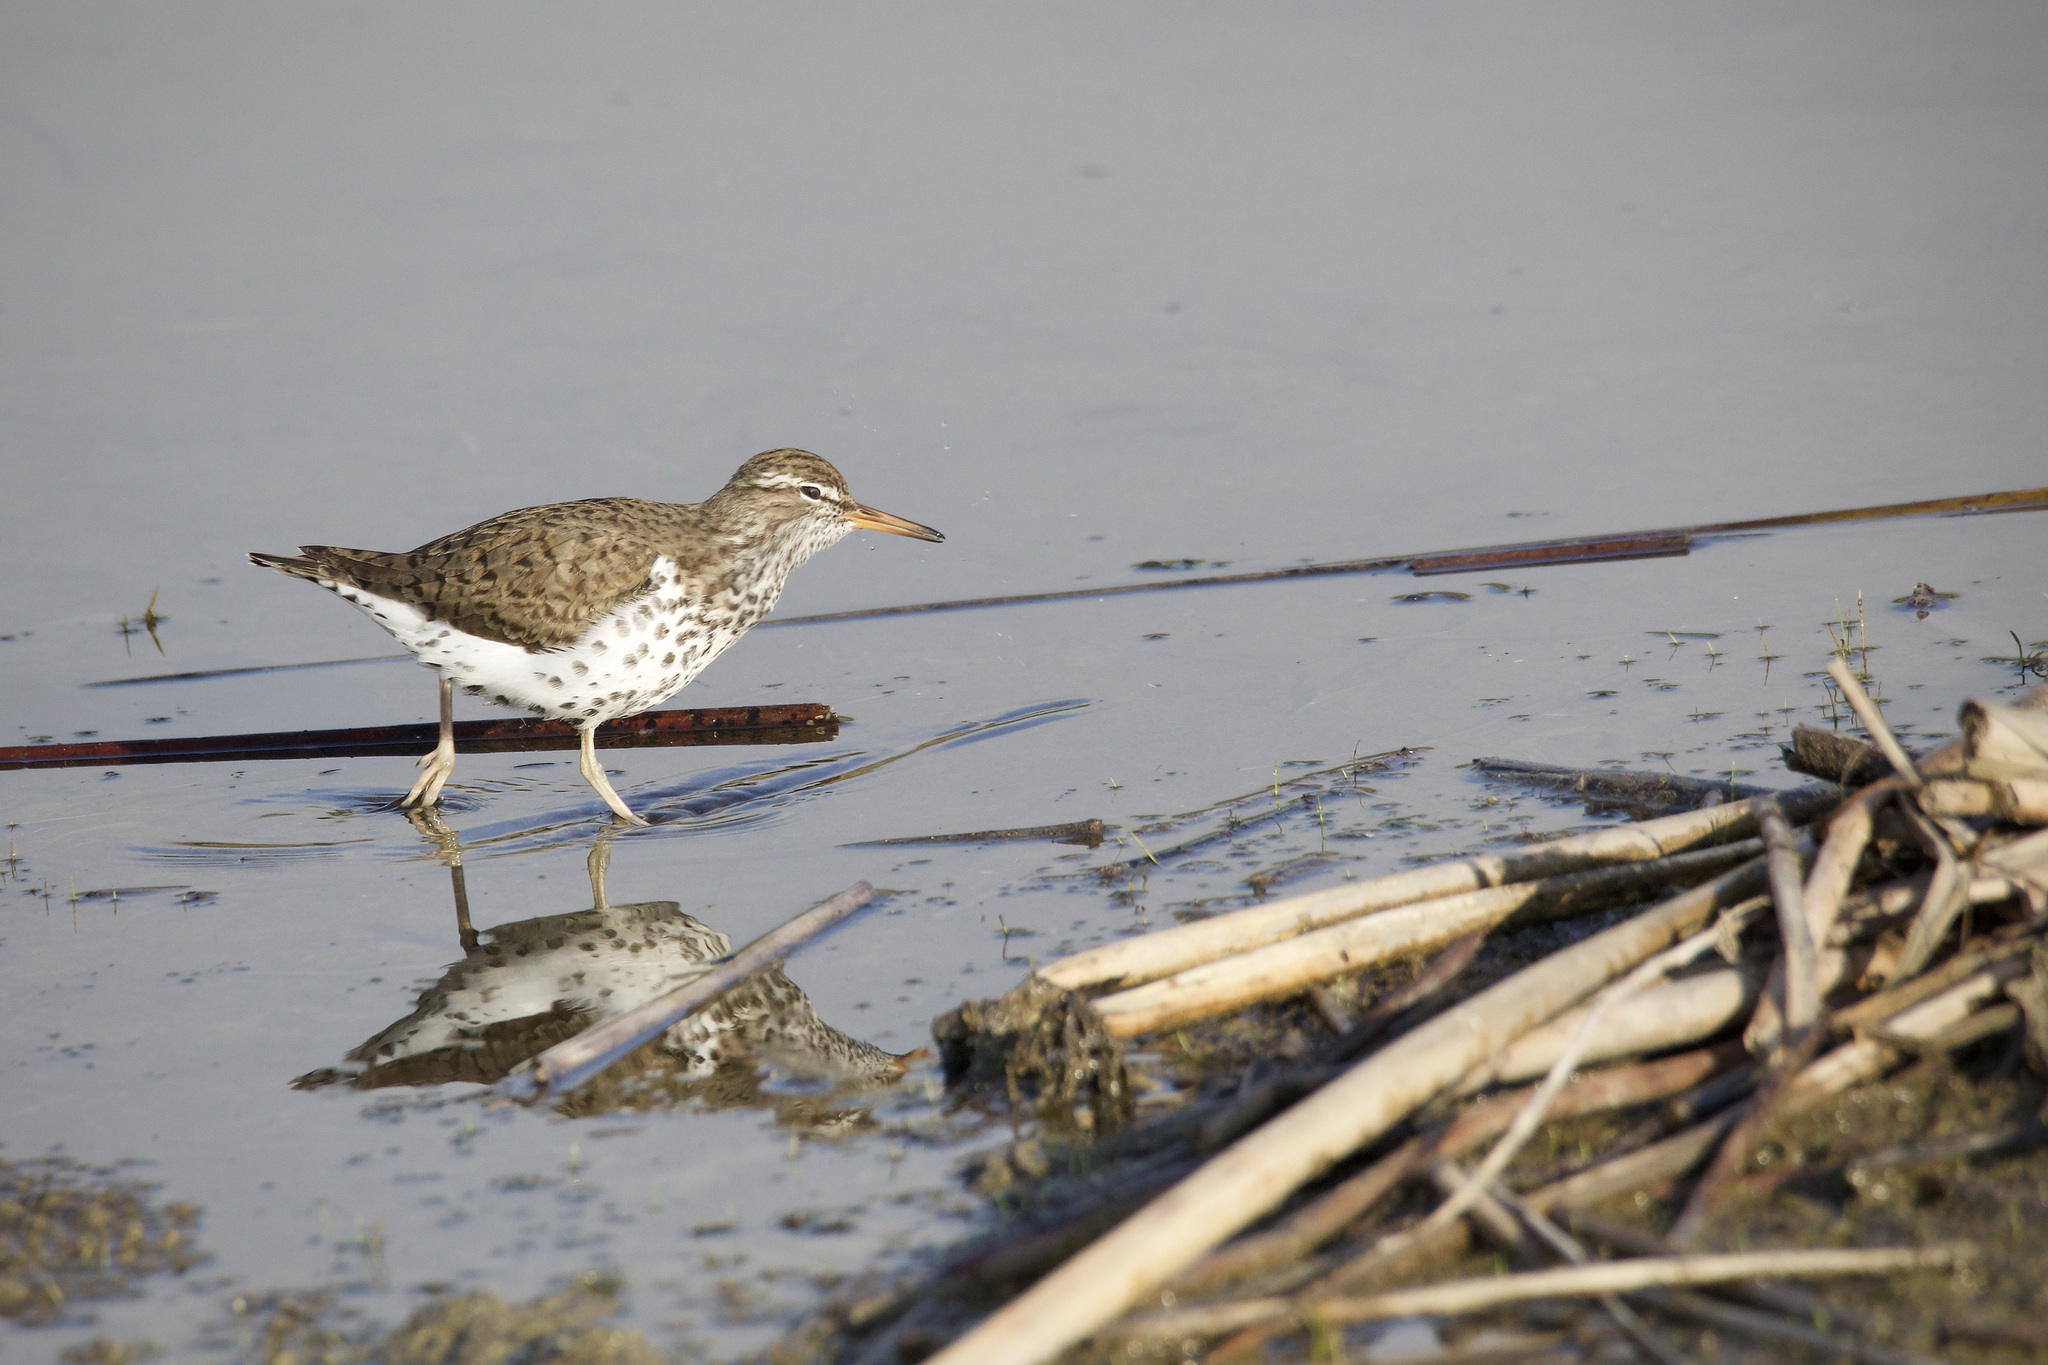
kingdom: Animalia
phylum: Chordata
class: Aves
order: Charadriiformes
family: Scolopacidae
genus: Actitis
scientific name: Actitis macularius
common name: Spotted sandpiper
